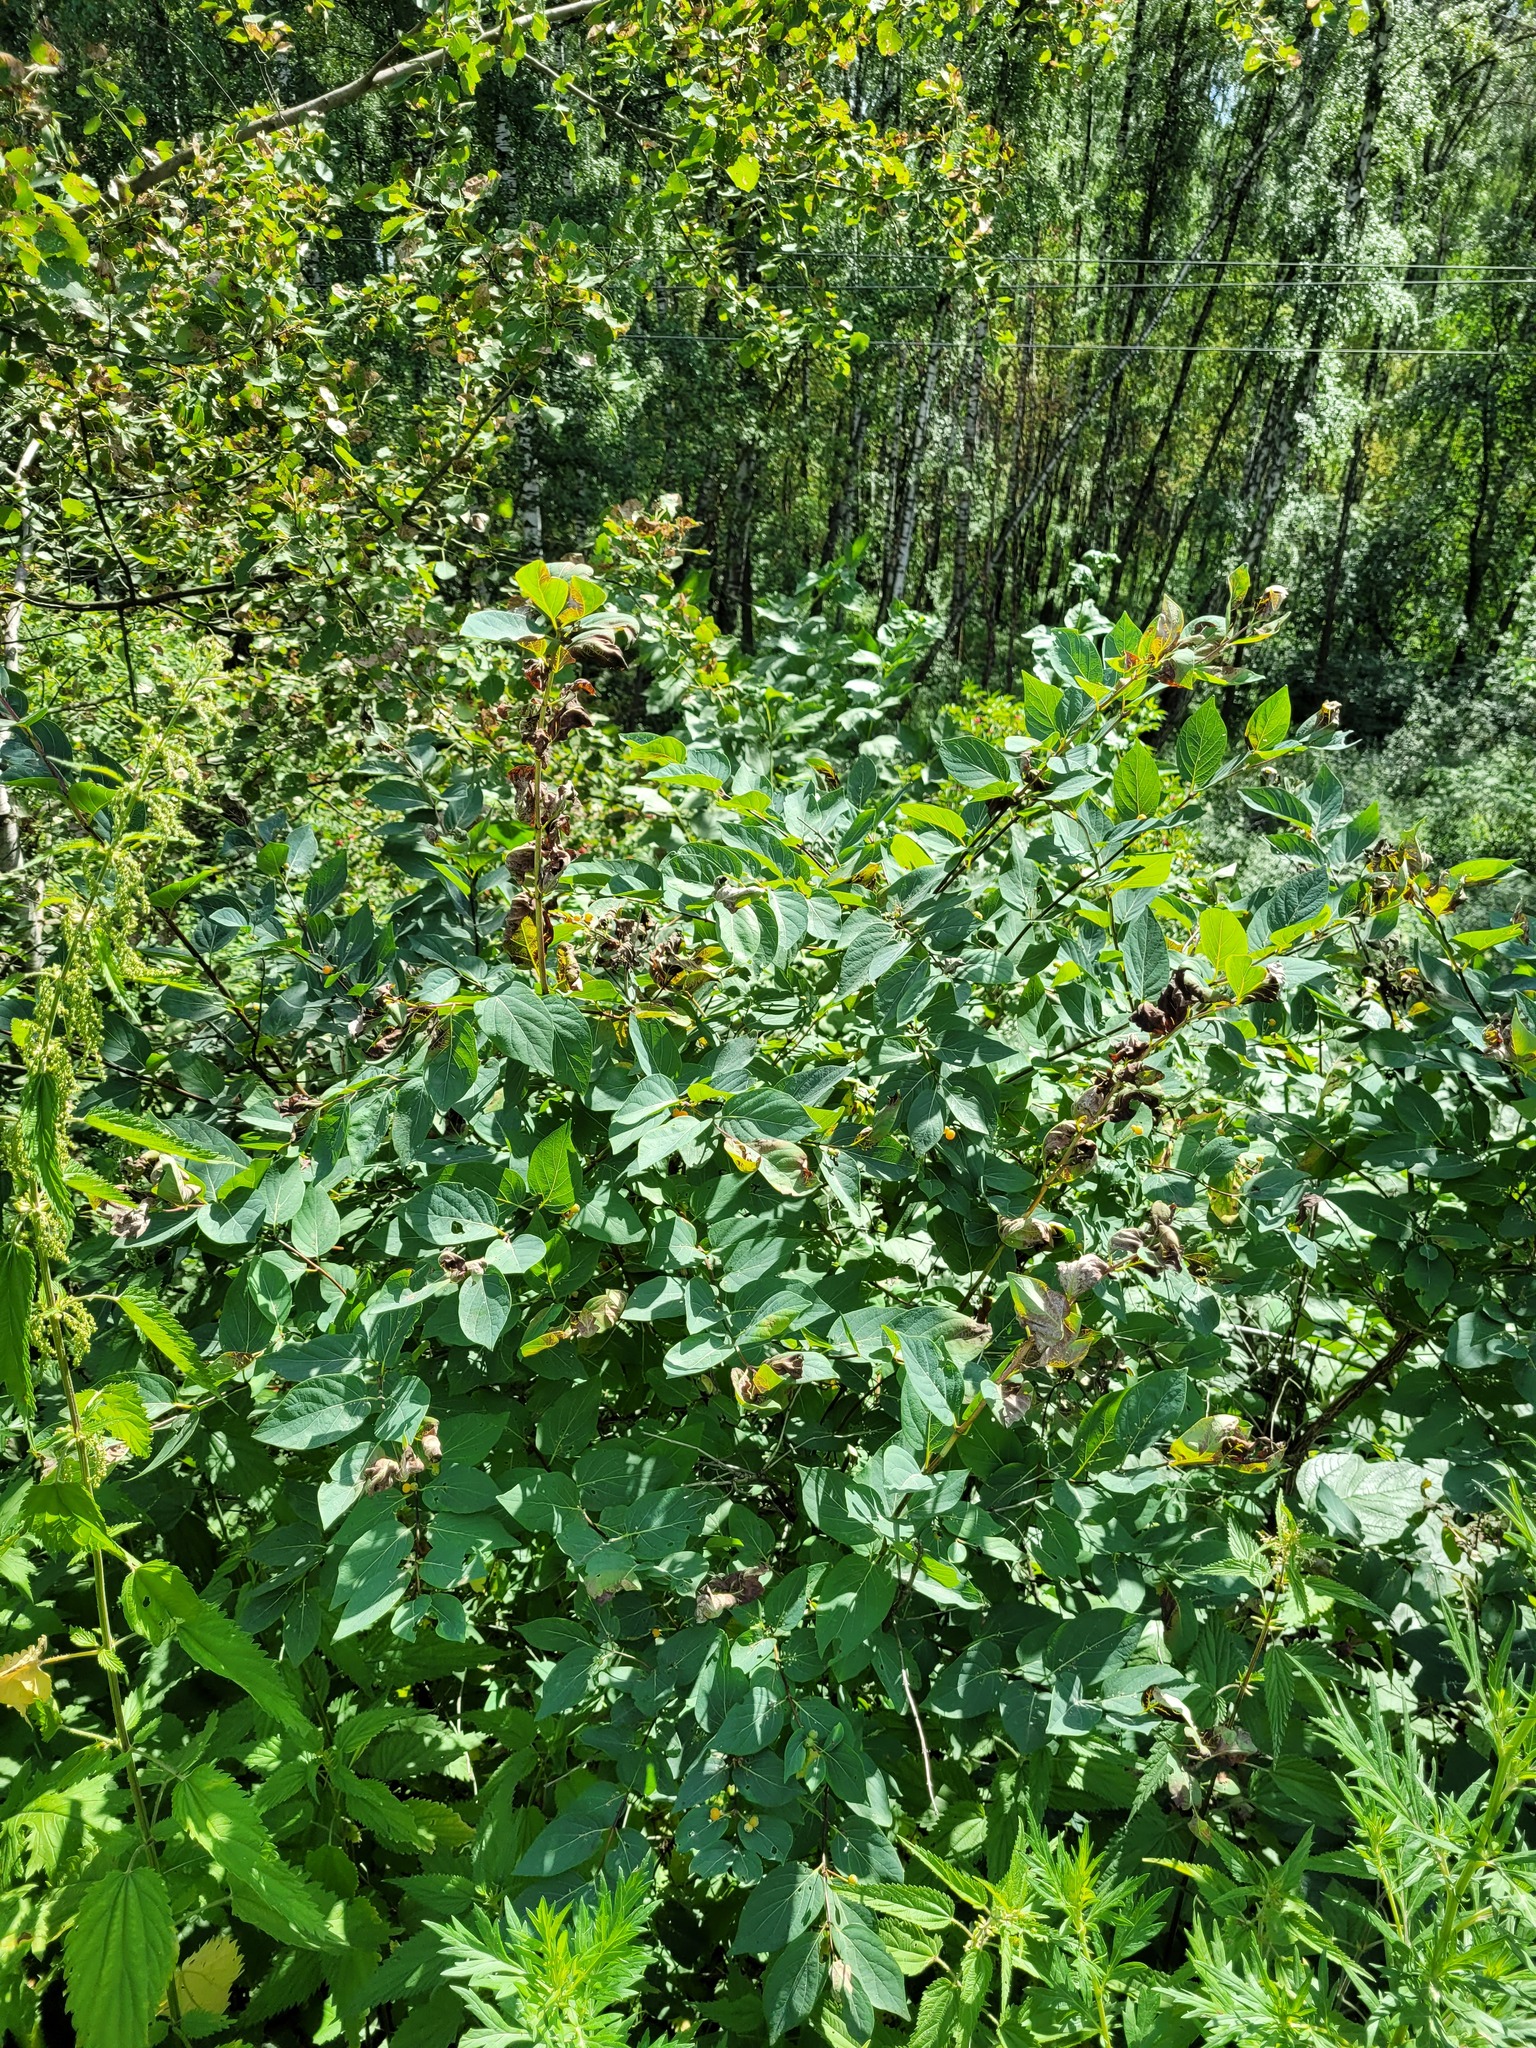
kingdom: Plantae
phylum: Tracheophyta
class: Magnoliopsida
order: Dipsacales
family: Caprifoliaceae
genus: Lonicera
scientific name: Lonicera tatarica
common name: Tatarian honeysuckle
